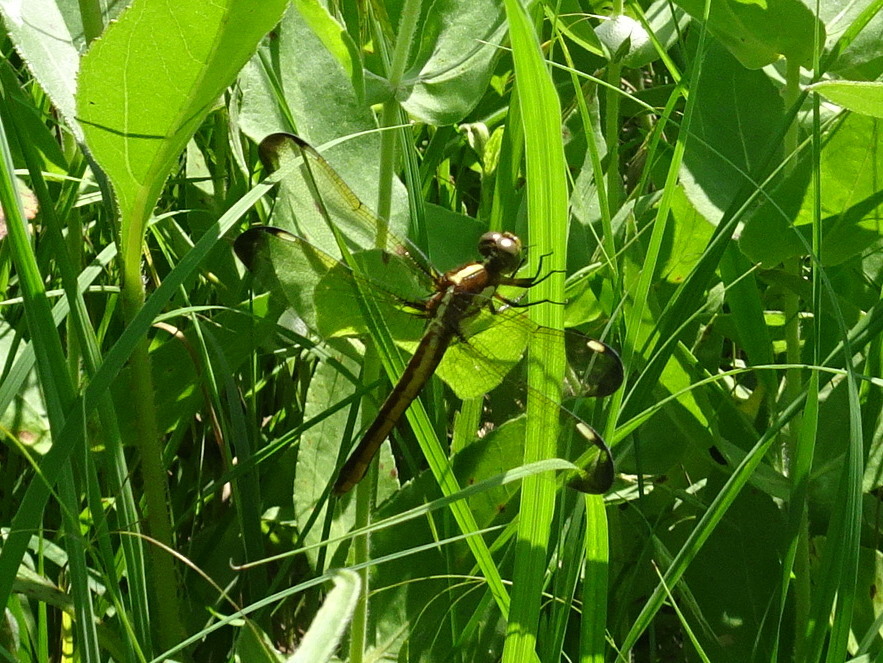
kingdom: Animalia
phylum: Arthropoda
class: Insecta
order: Odonata
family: Libellulidae
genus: Libellula
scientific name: Libellula cyanea
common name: Spangled skimmer
